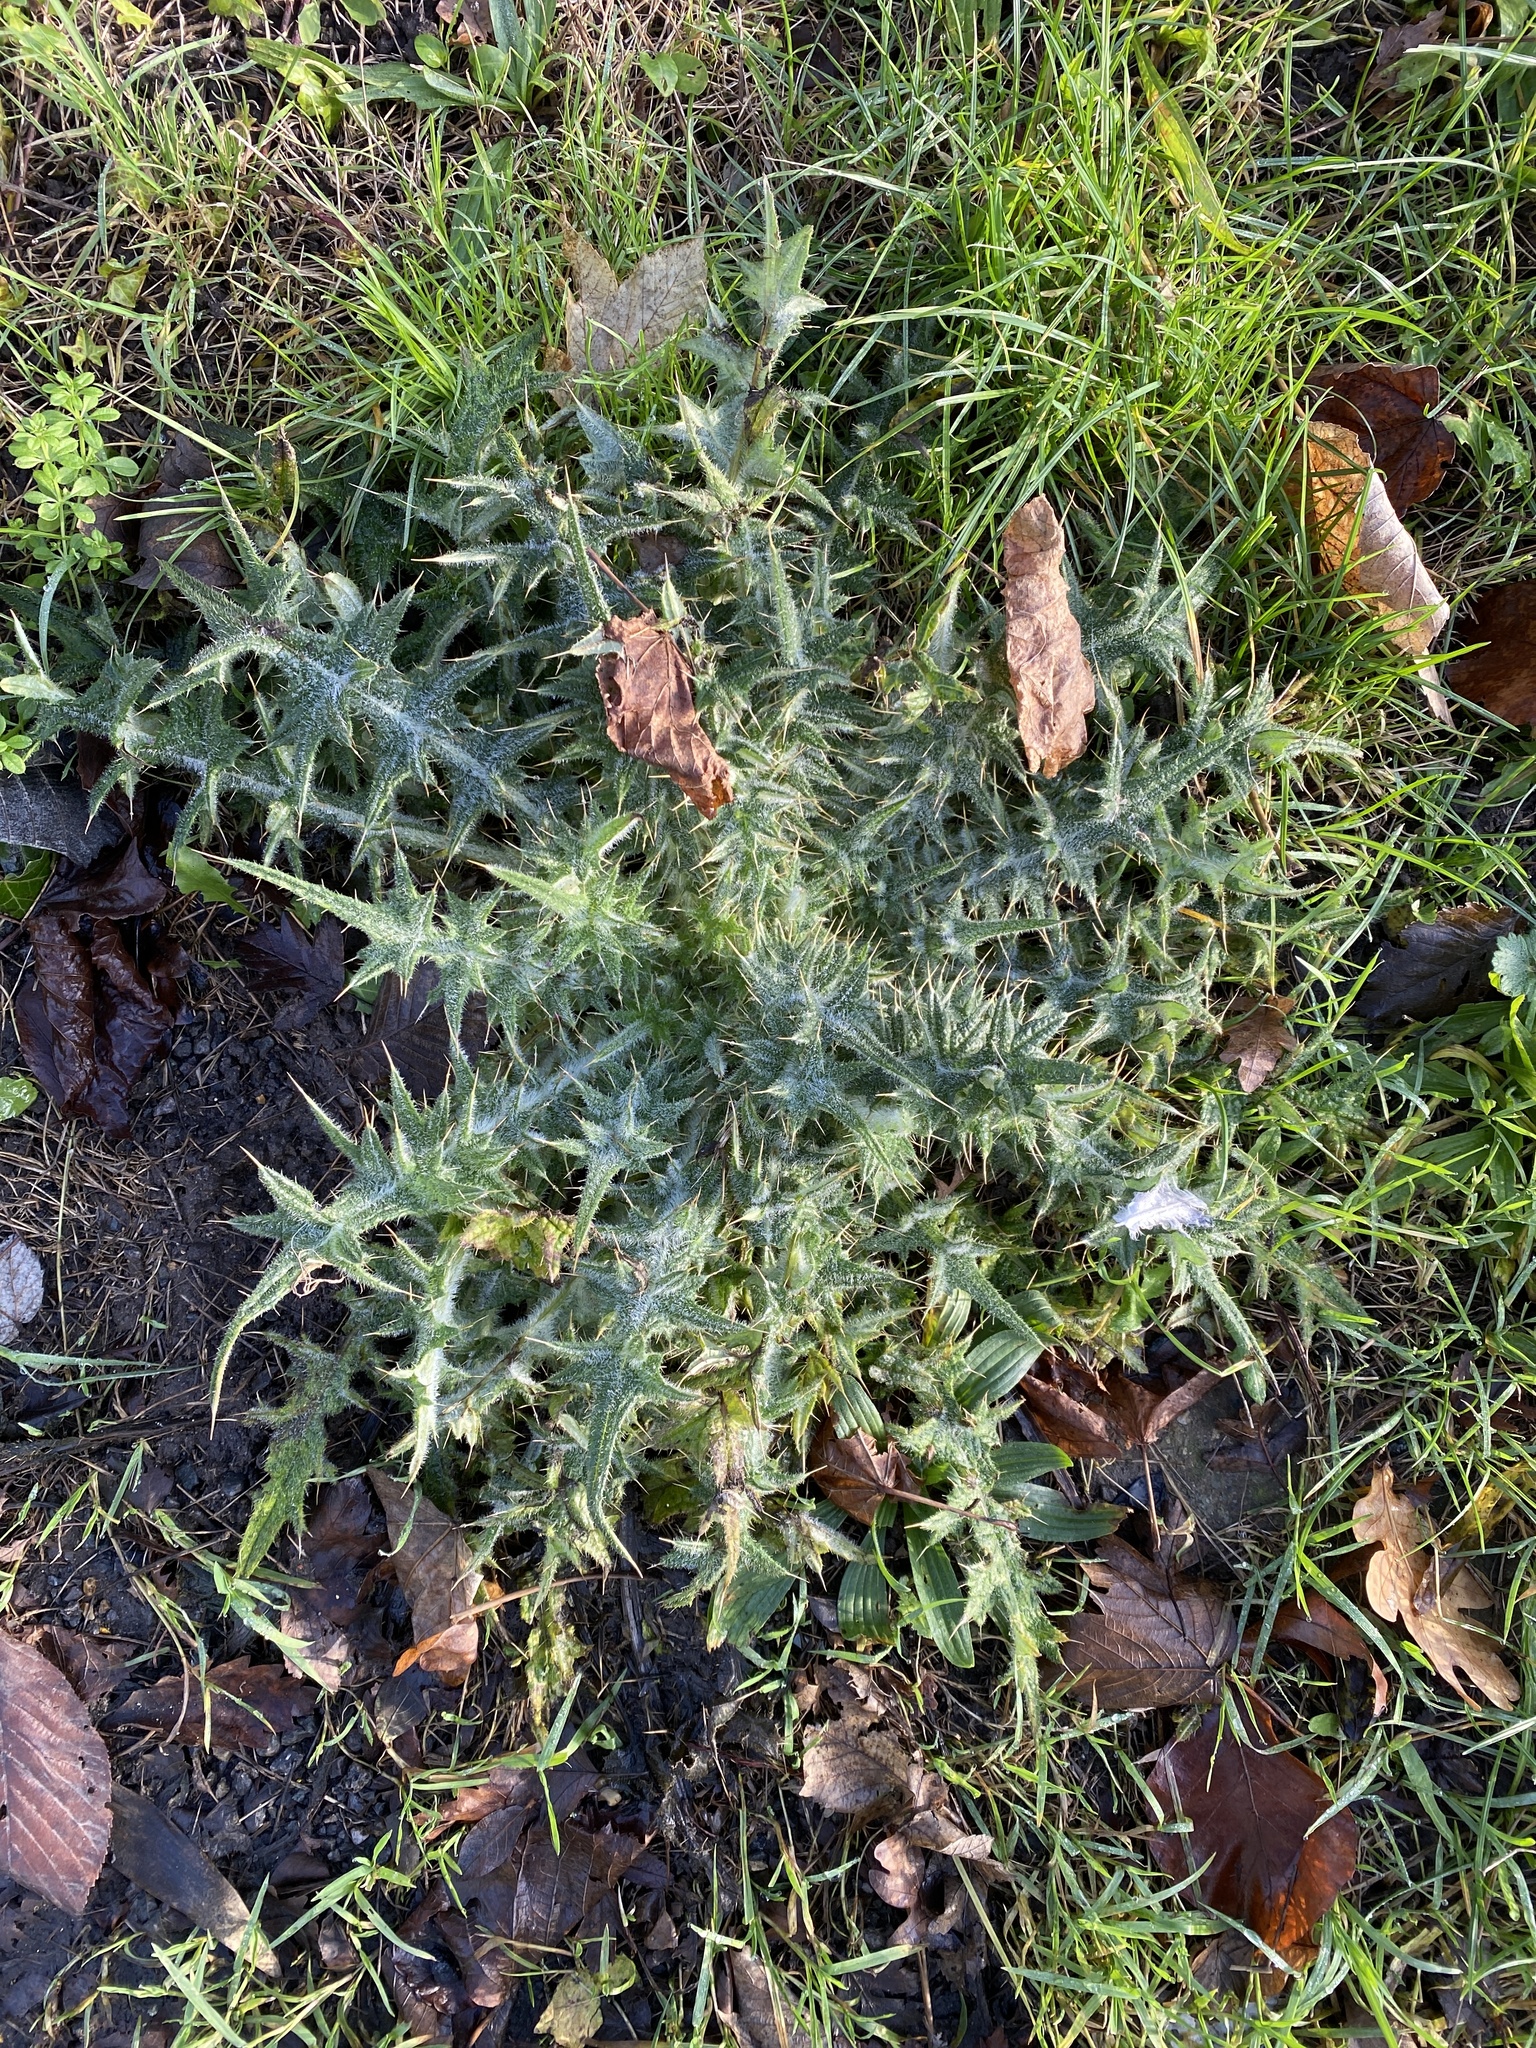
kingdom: Plantae
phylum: Tracheophyta
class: Magnoliopsida
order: Asterales
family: Asteraceae
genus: Cirsium
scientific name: Cirsium vulgare
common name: Bull thistle
